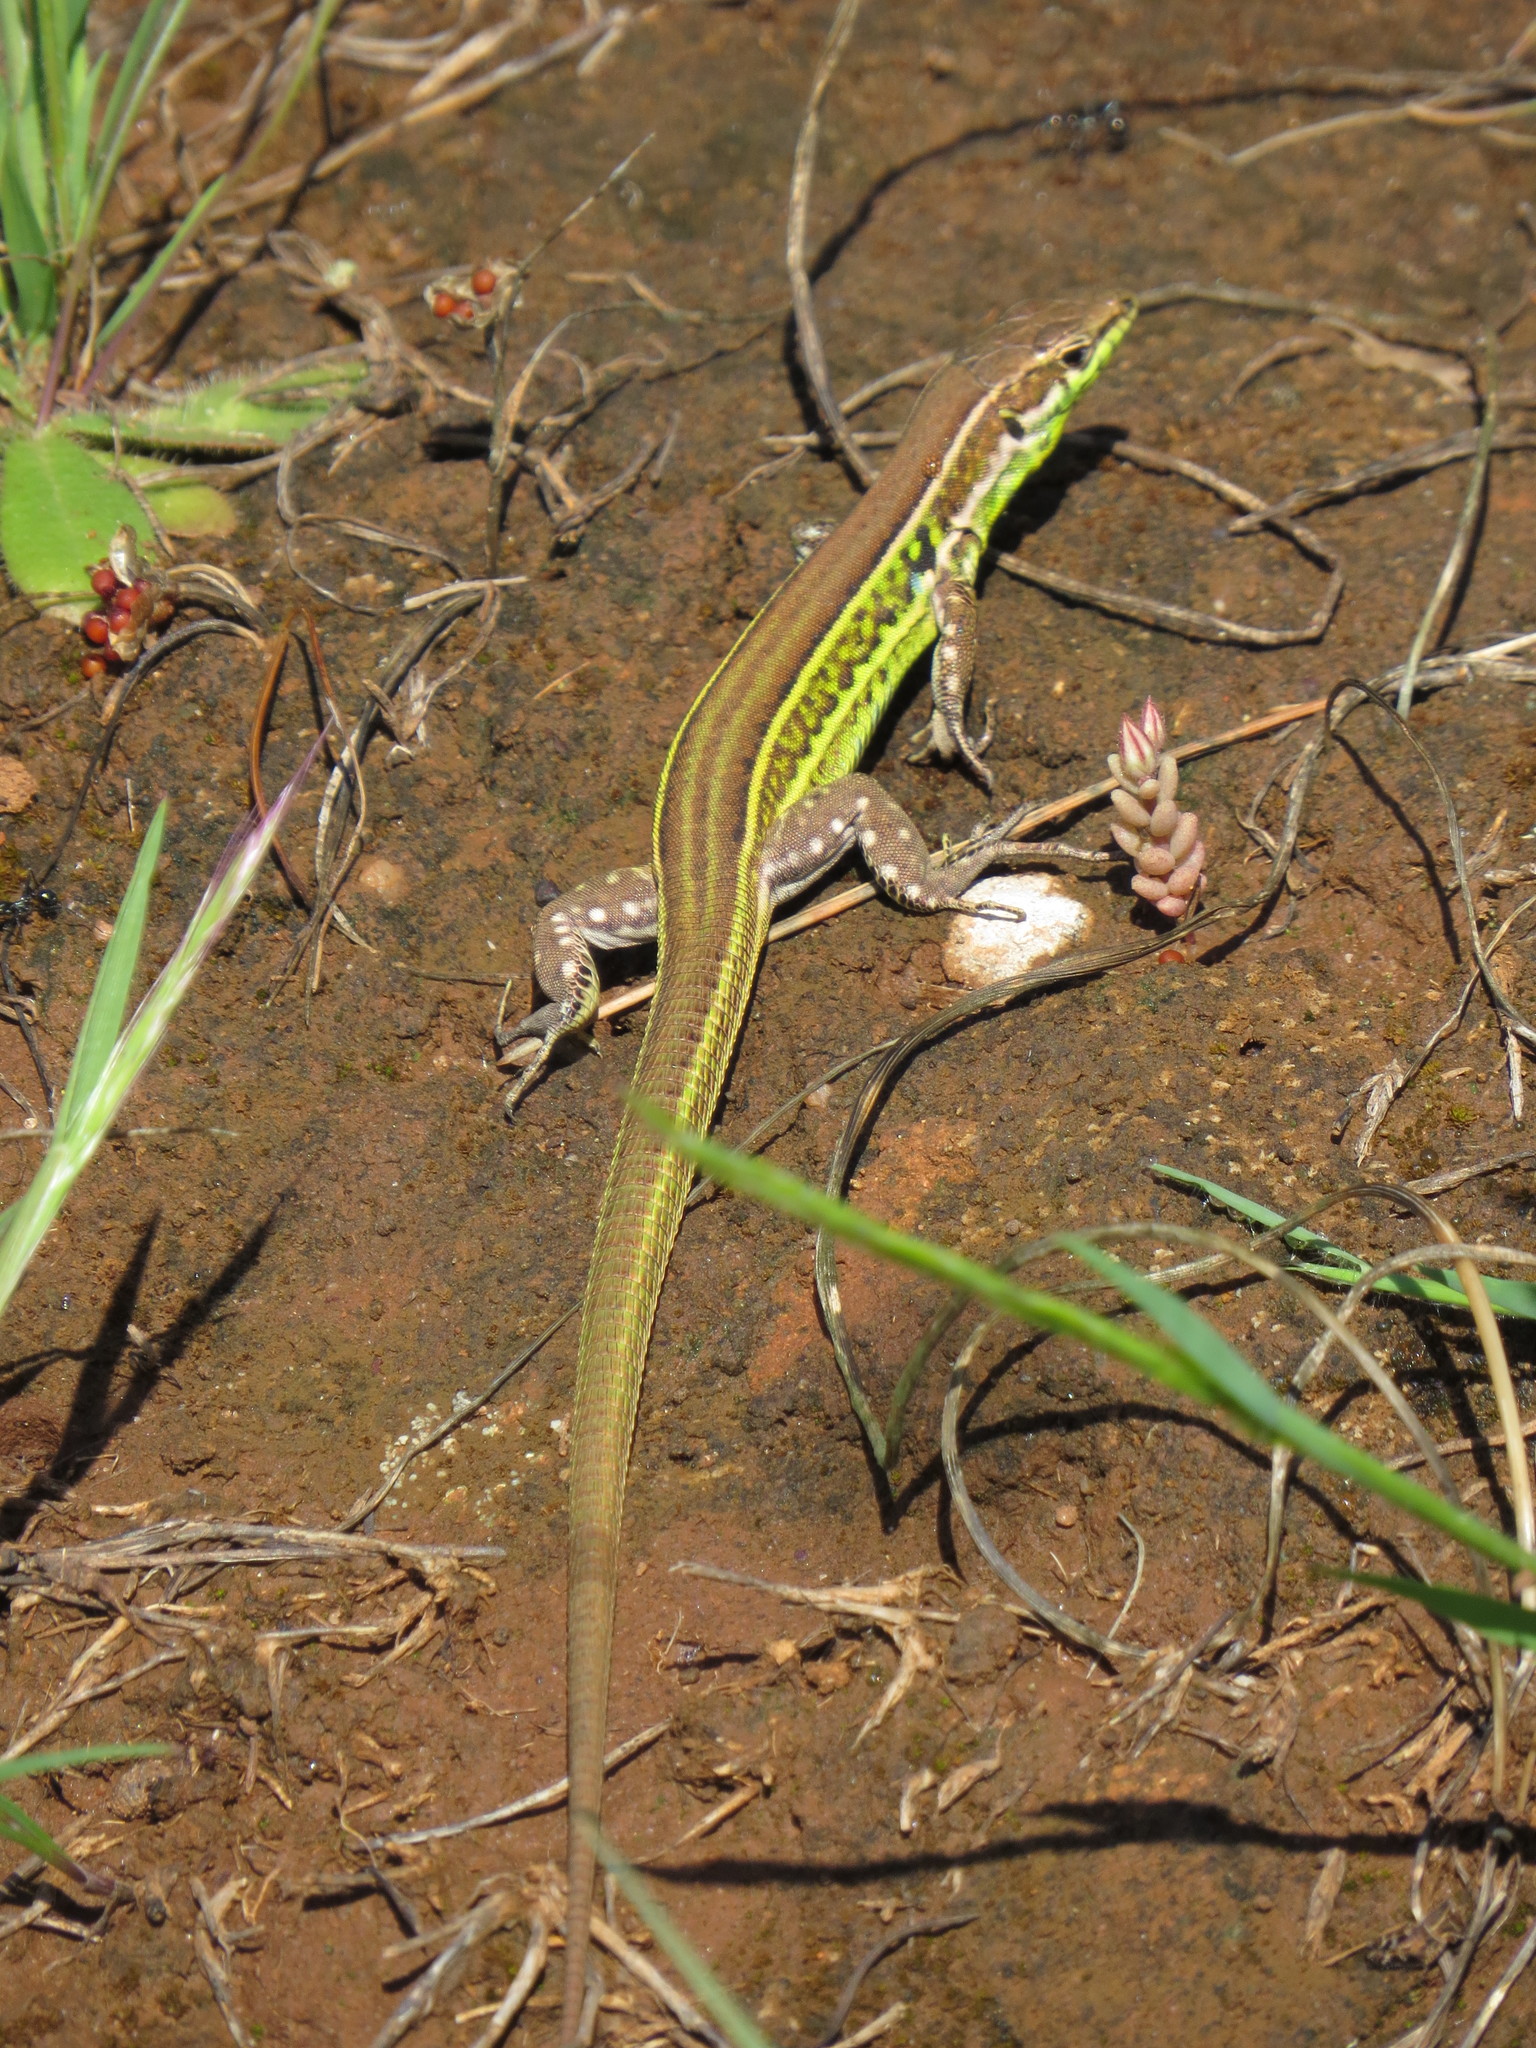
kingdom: Animalia
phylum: Chordata
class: Squamata
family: Lacertidae
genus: Podarcis
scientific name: Podarcis tiliguerta
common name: Tyrrhenian wall lizard
